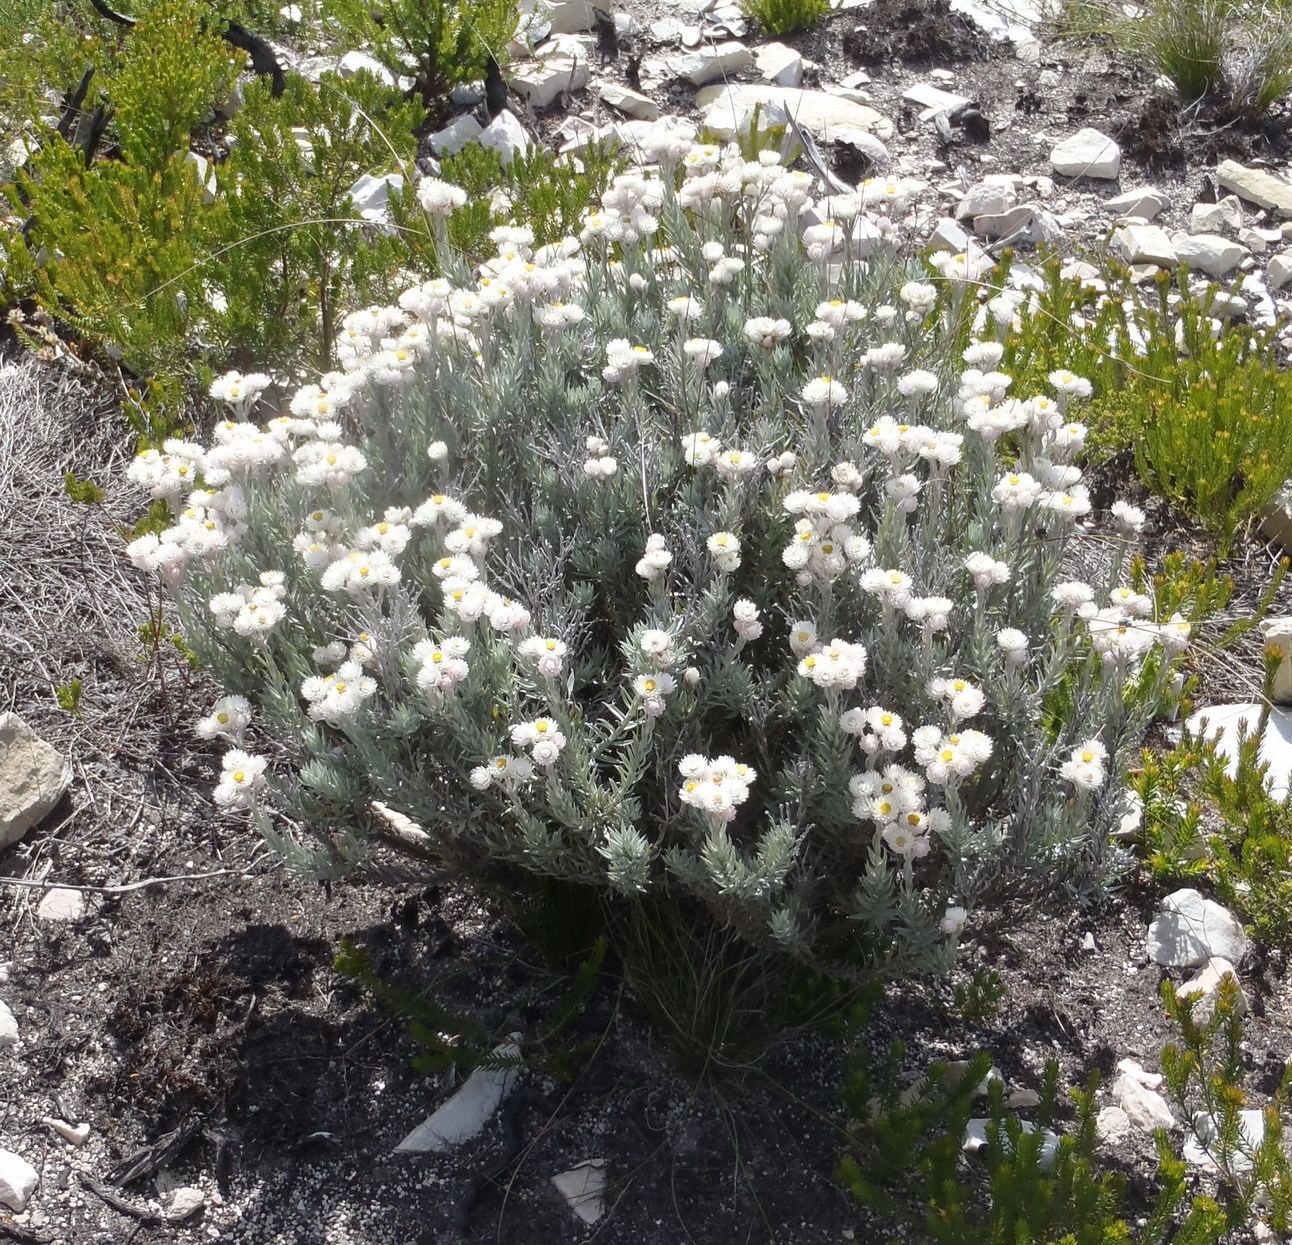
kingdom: Plantae
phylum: Tracheophyta
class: Magnoliopsida
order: Asterales
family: Asteraceae
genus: Achyranthemum
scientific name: Achyranthemum paniculatum
